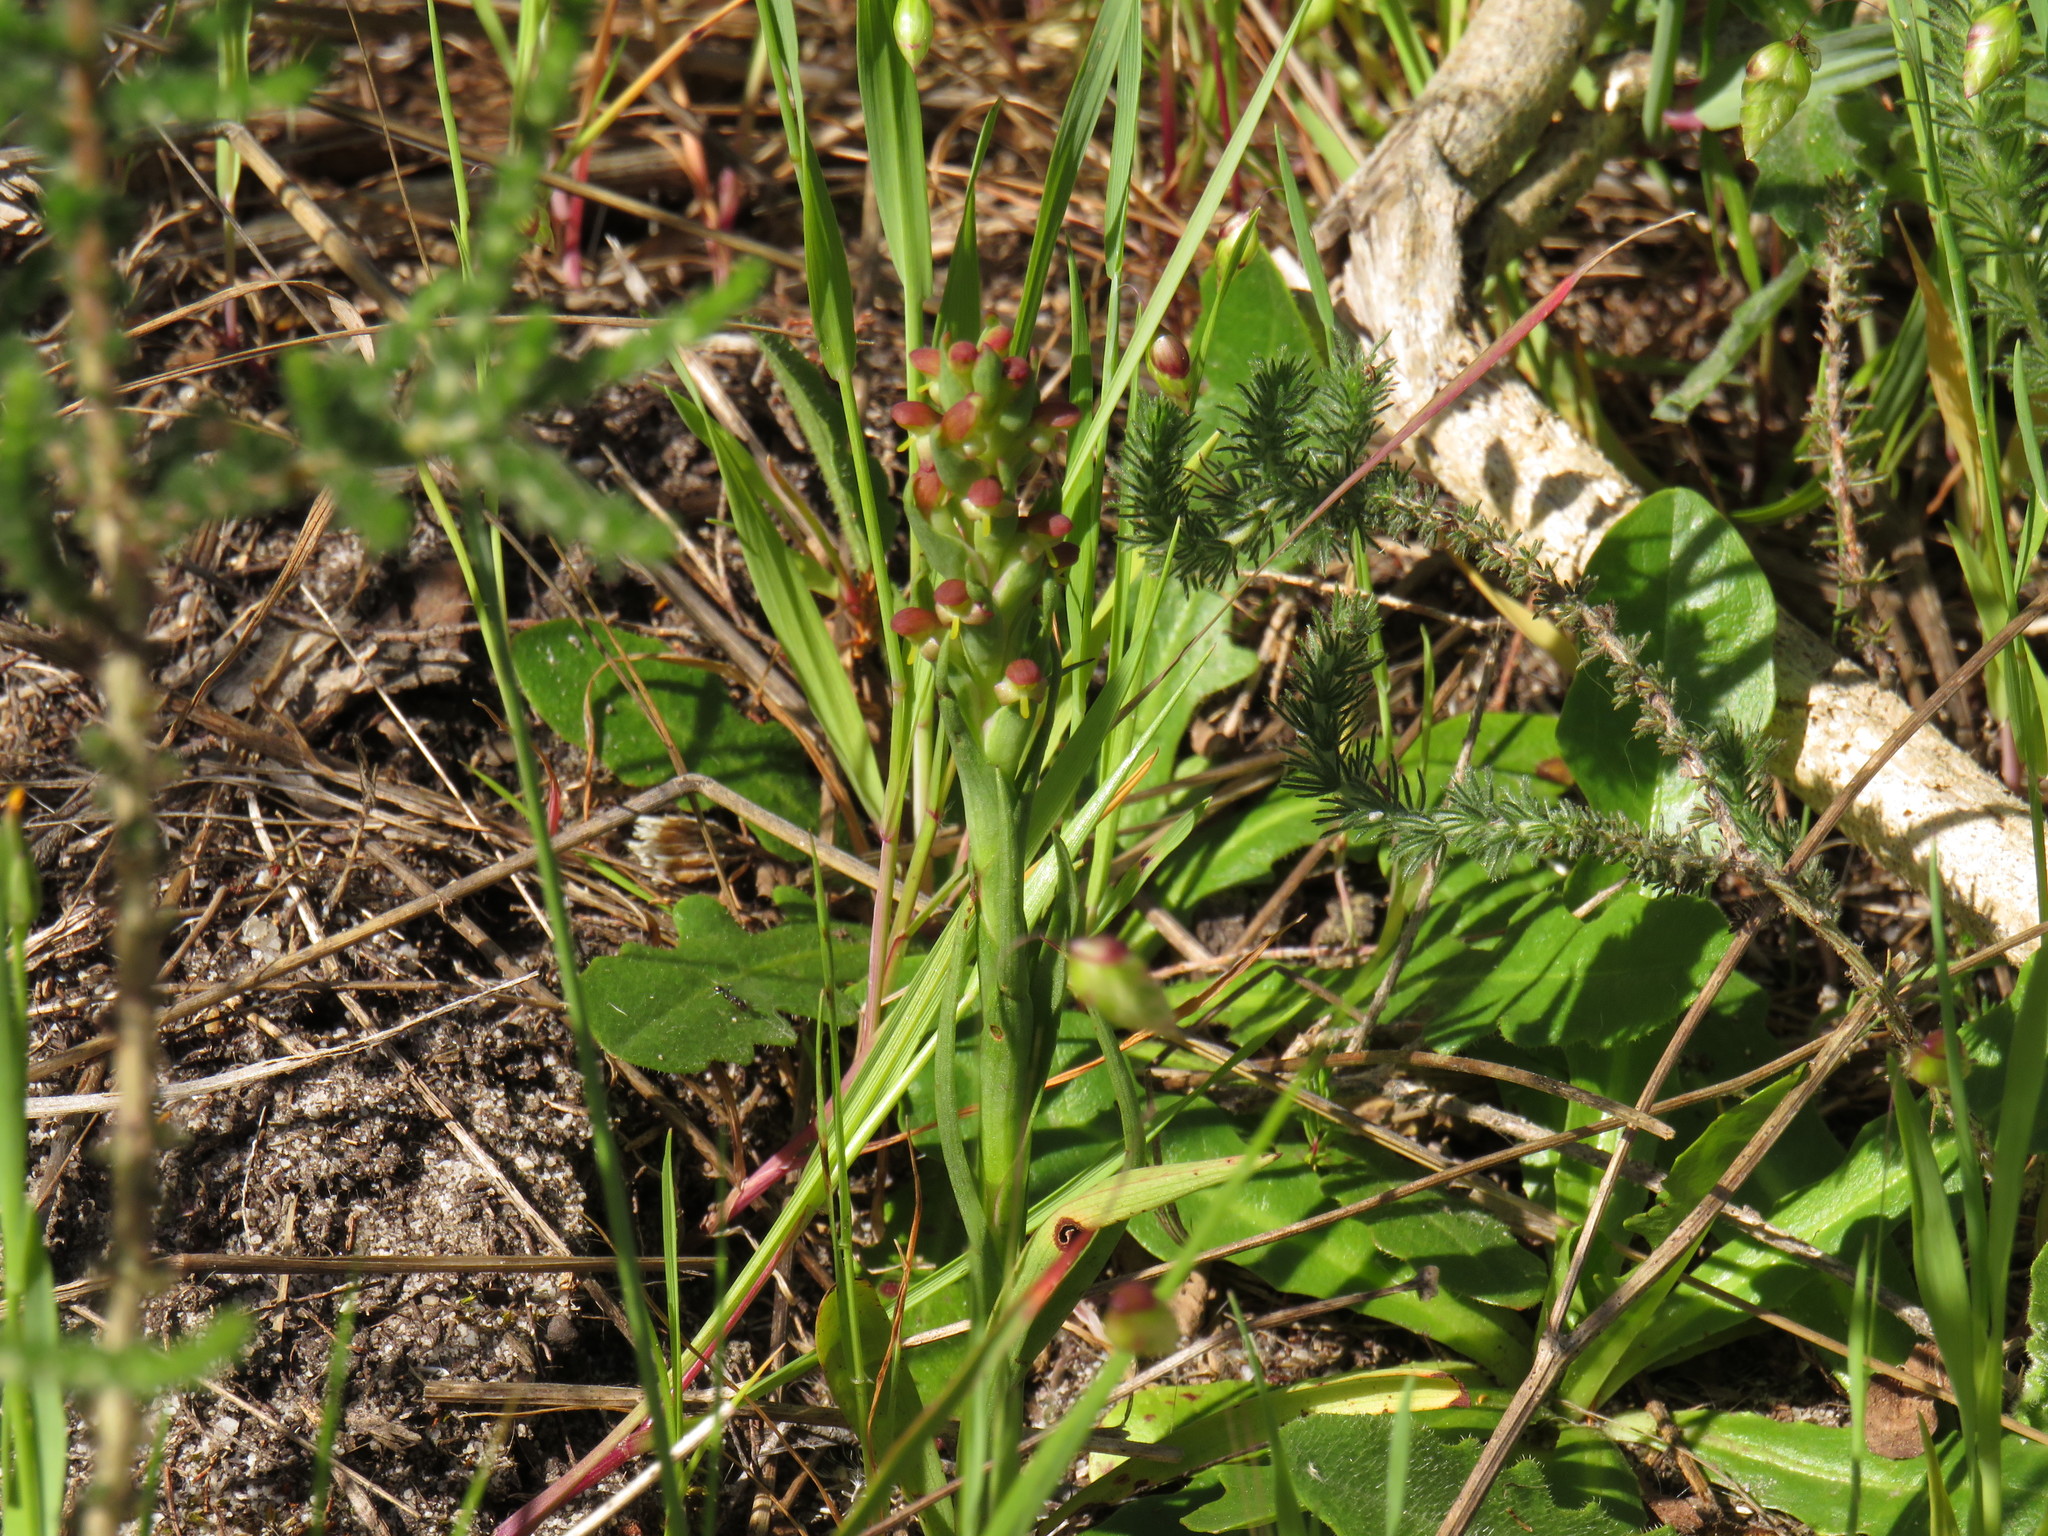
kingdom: Plantae
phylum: Tracheophyta
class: Liliopsida
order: Asparagales
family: Orchidaceae
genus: Disa
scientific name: Disa bracteata
